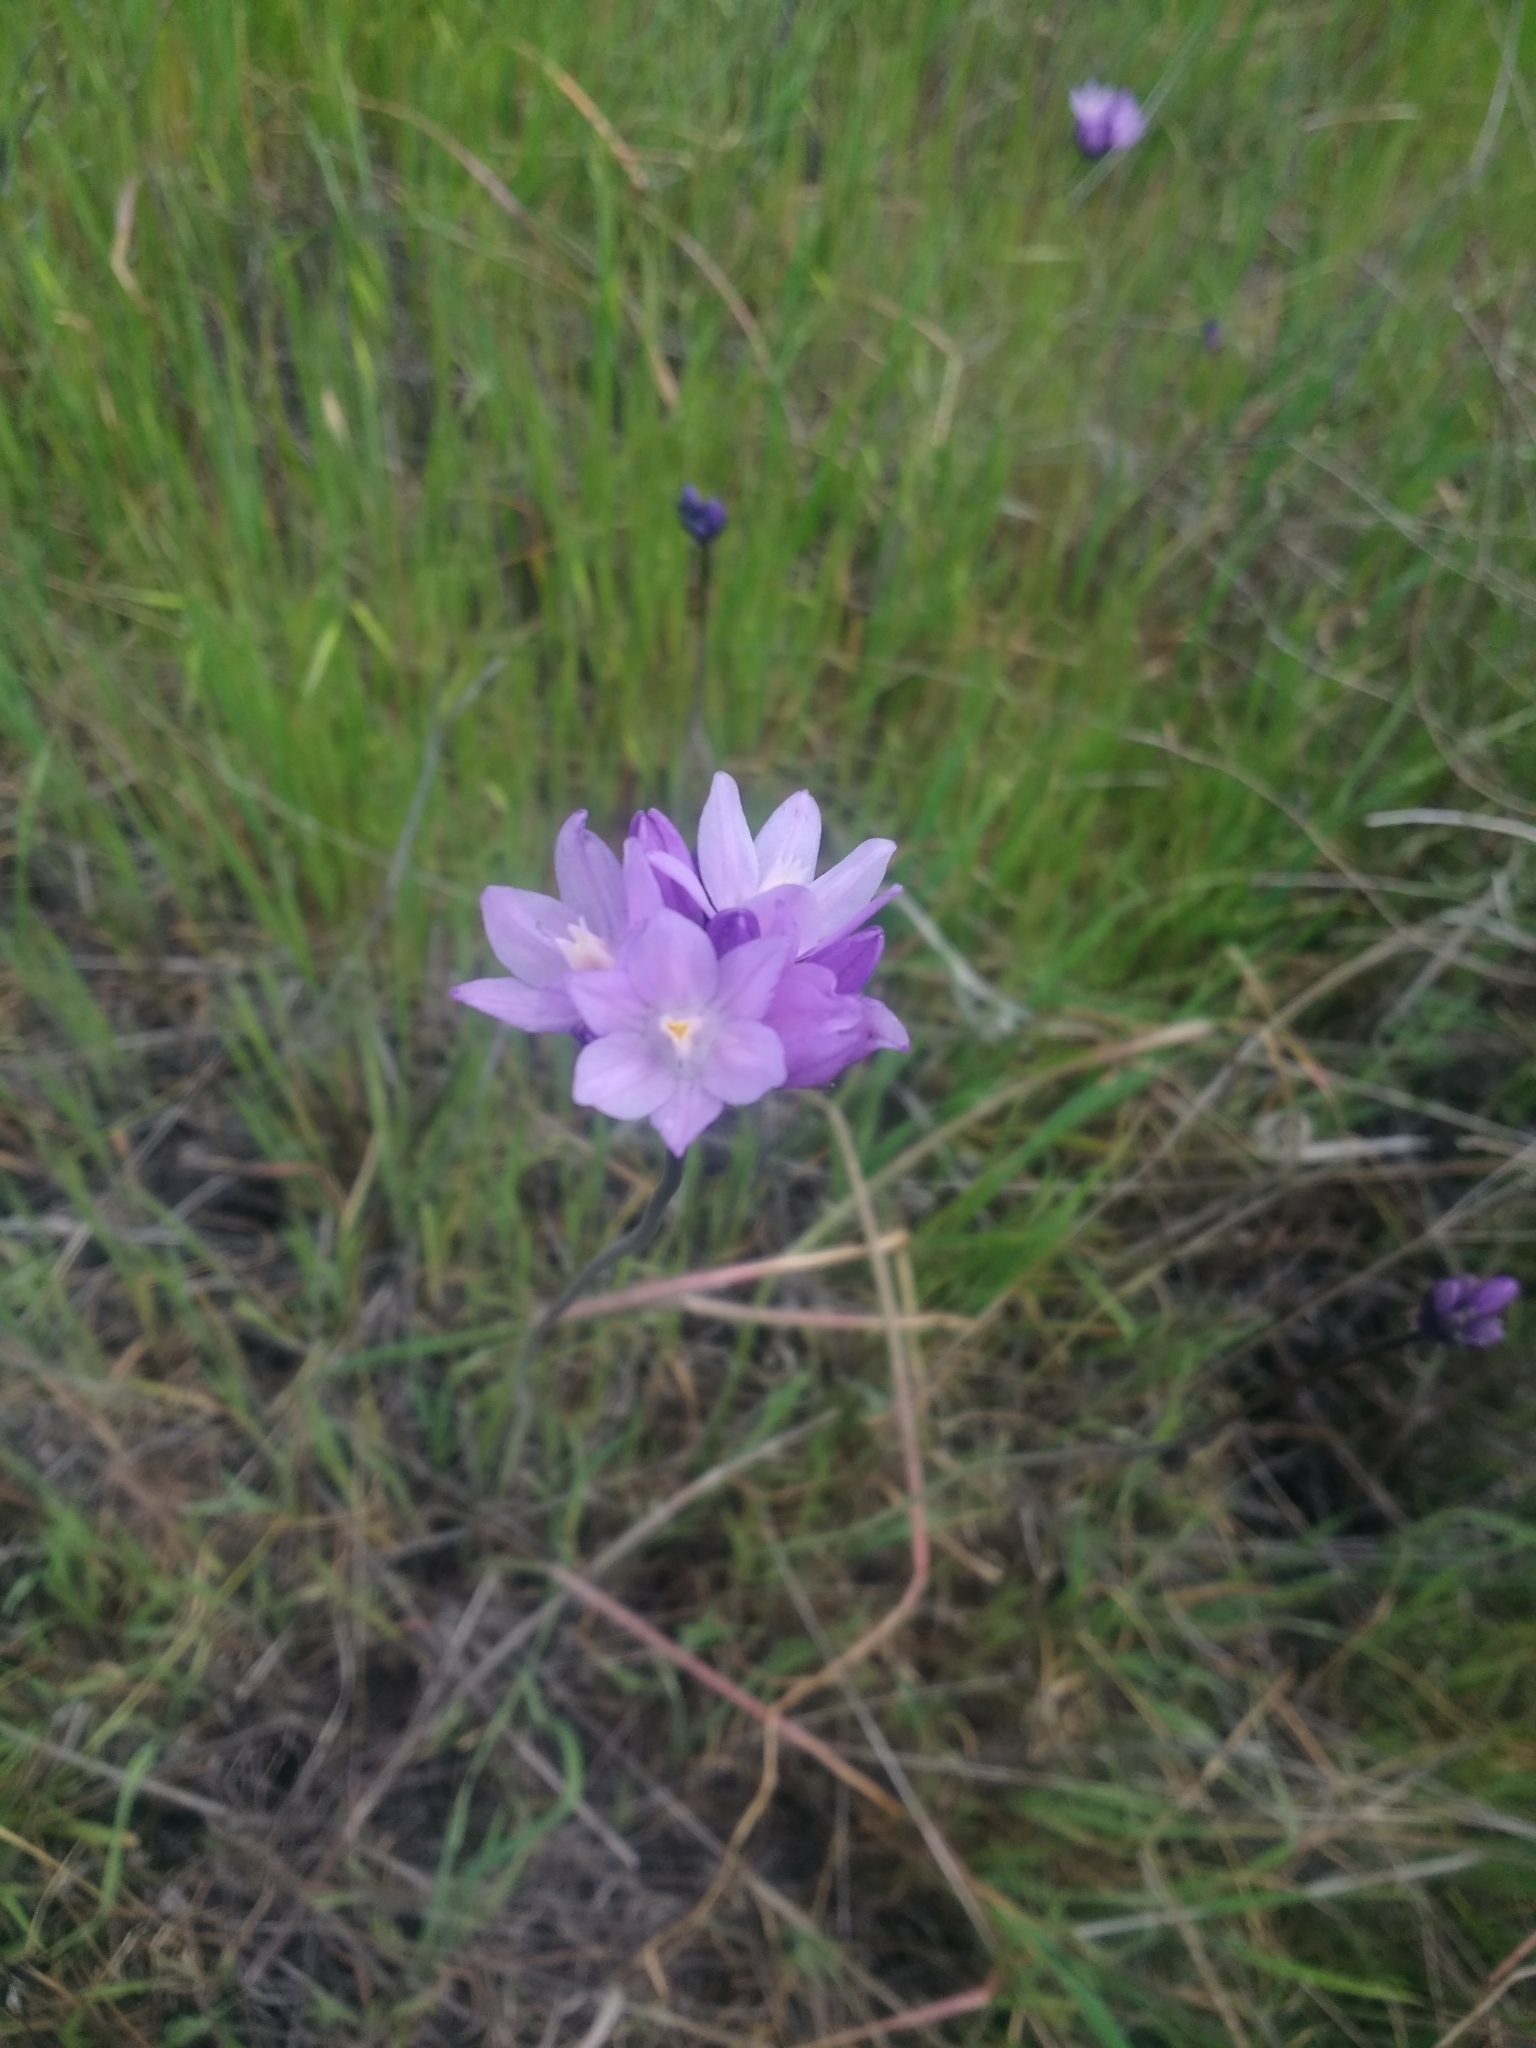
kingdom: Plantae
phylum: Tracheophyta
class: Liliopsida
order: Asparagales
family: Asparagaceae
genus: Dipterostemon
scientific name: Dipterostemon capitatus
